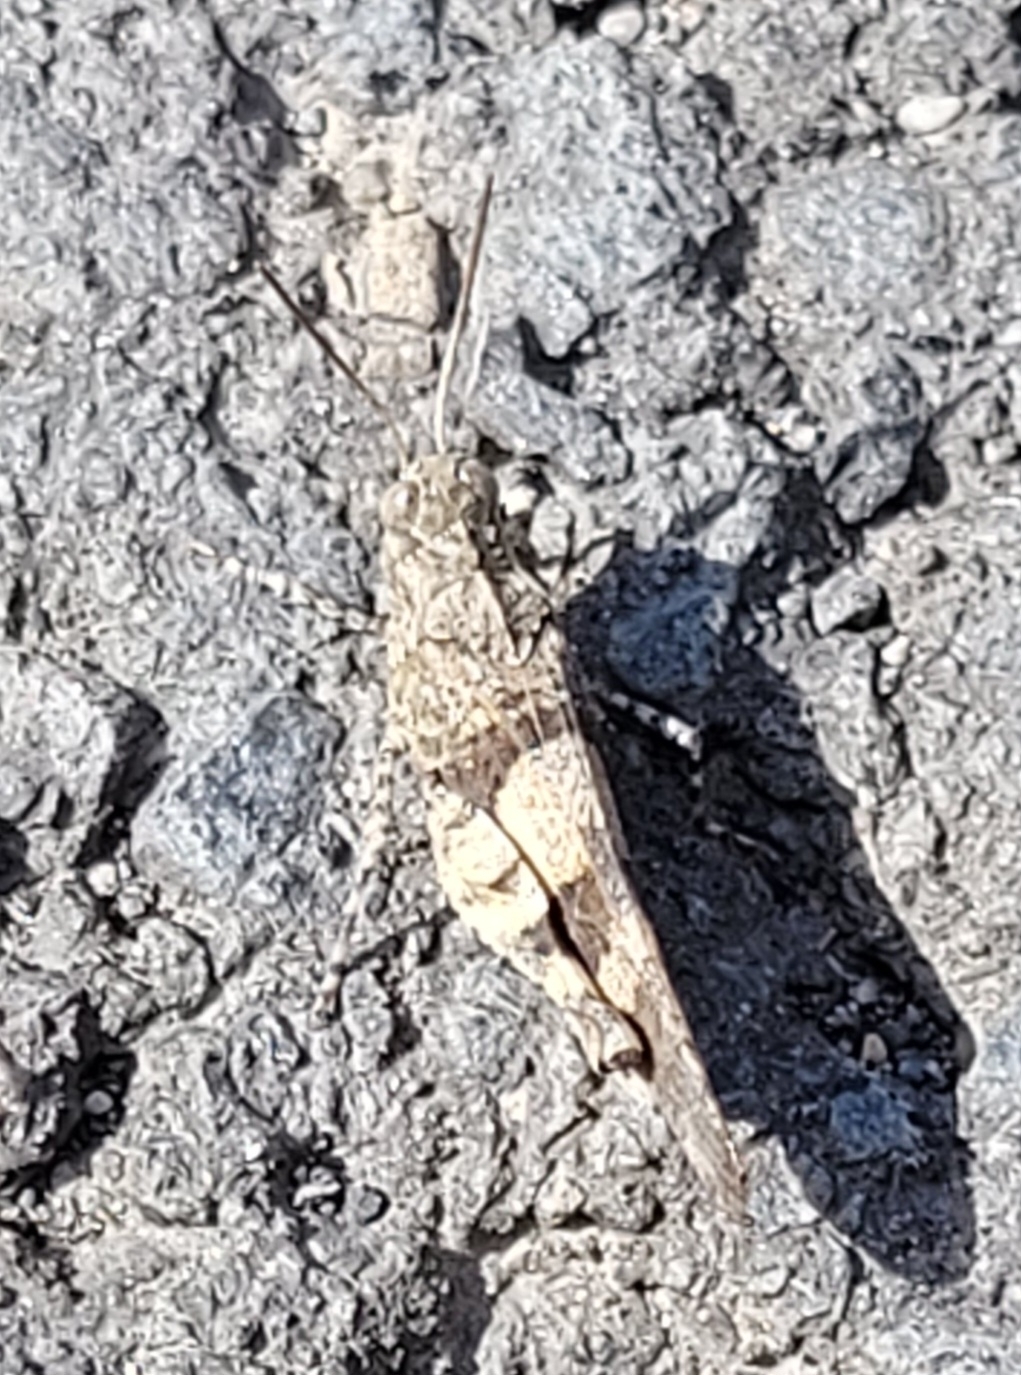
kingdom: Animalia
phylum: Arthropoda
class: Insecta
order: Orthoptera
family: Acrididae
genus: Oedipoda
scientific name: Oedipoda caerulescens
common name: Blue-winged grasshopper
